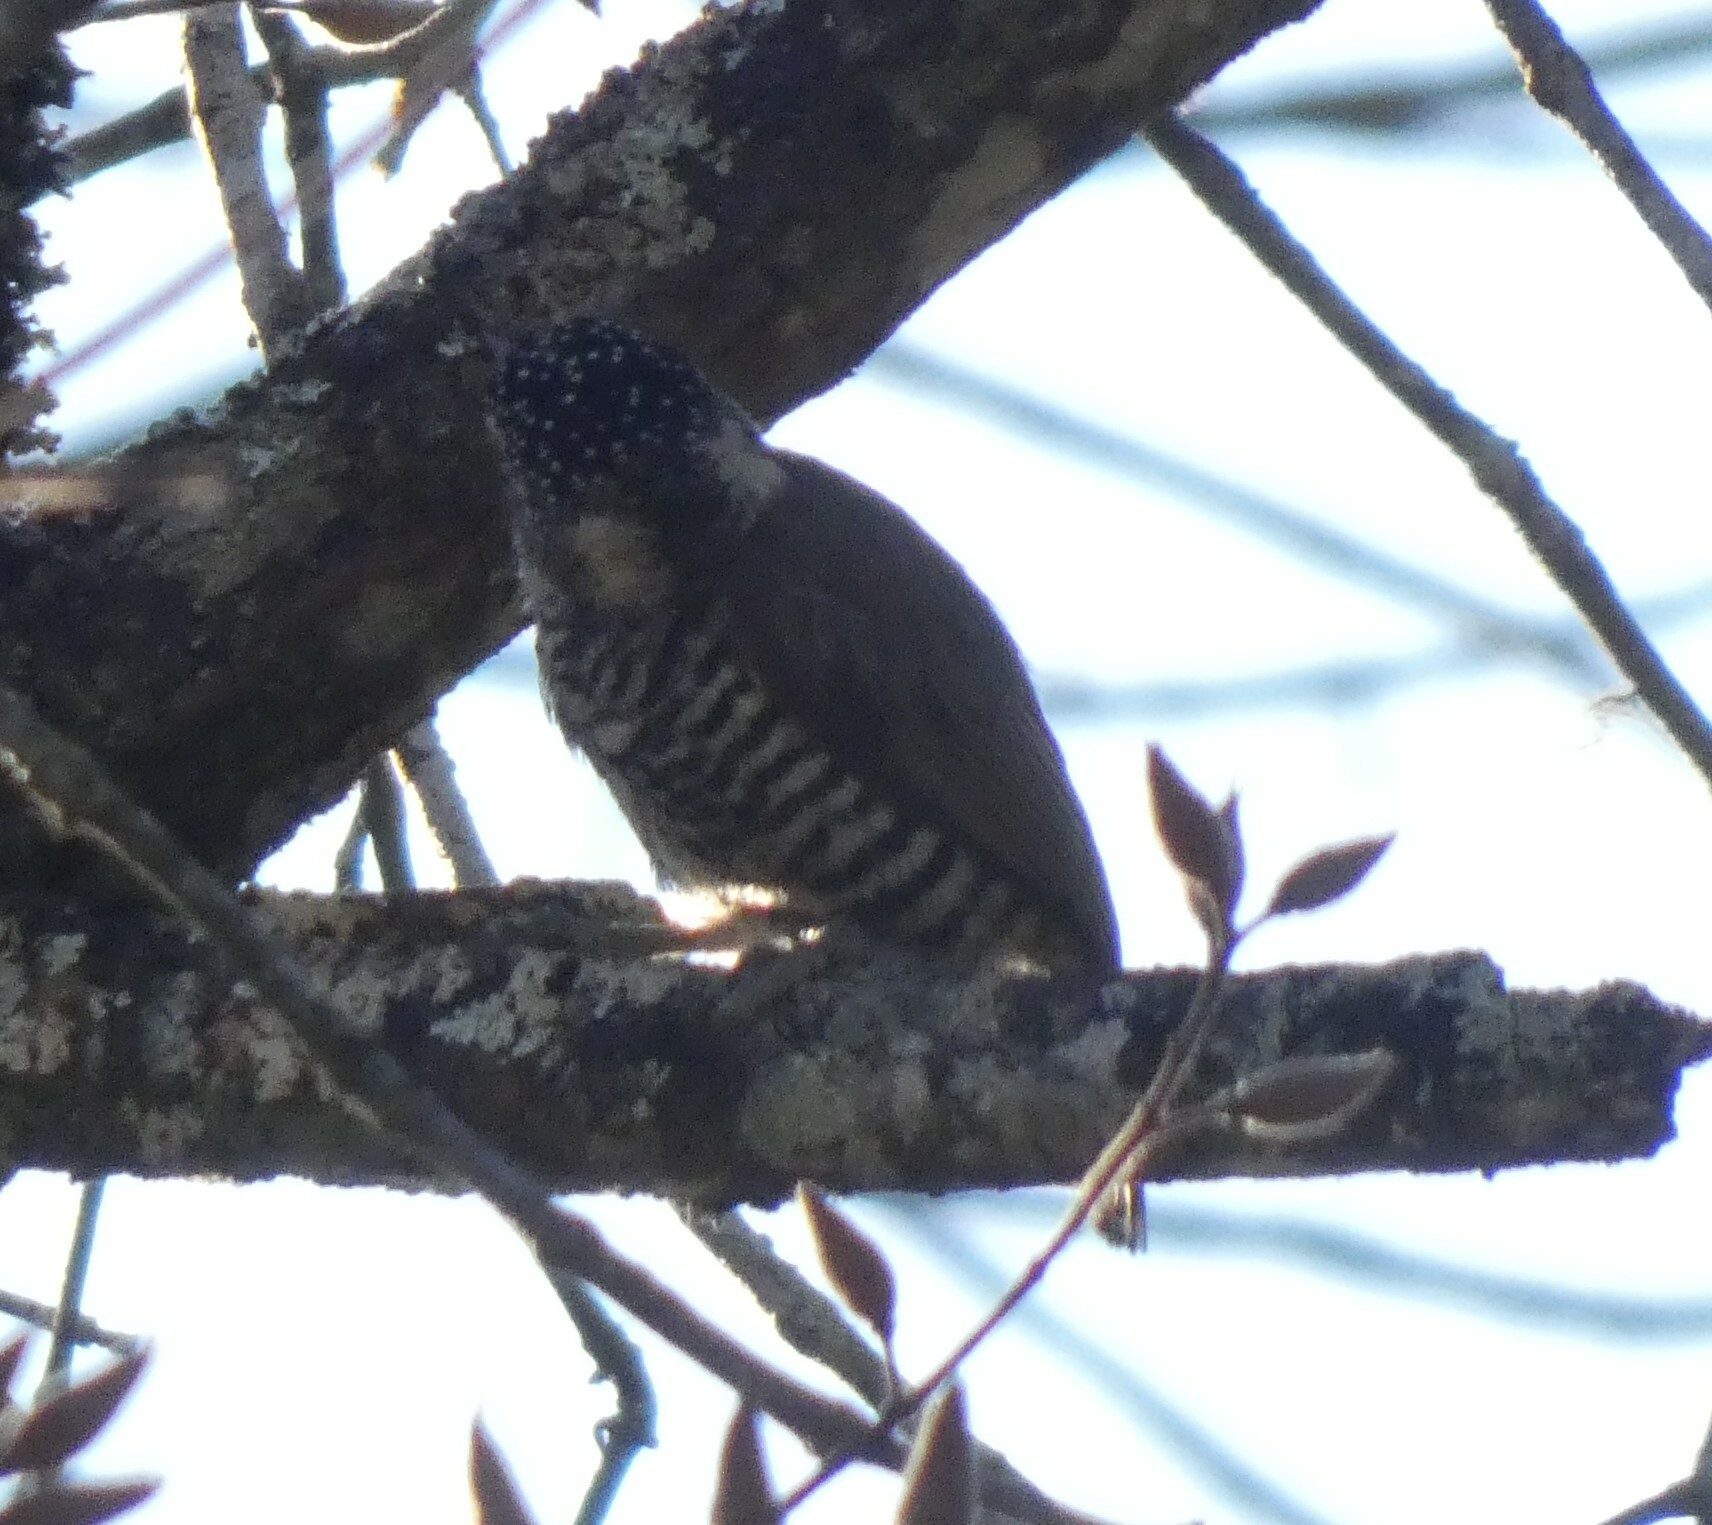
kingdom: Animalia
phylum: Chordata
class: Aves
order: Piciformes
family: Picidae
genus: Picumnus
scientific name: Picumnus cirratus
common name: White-barred piculet
